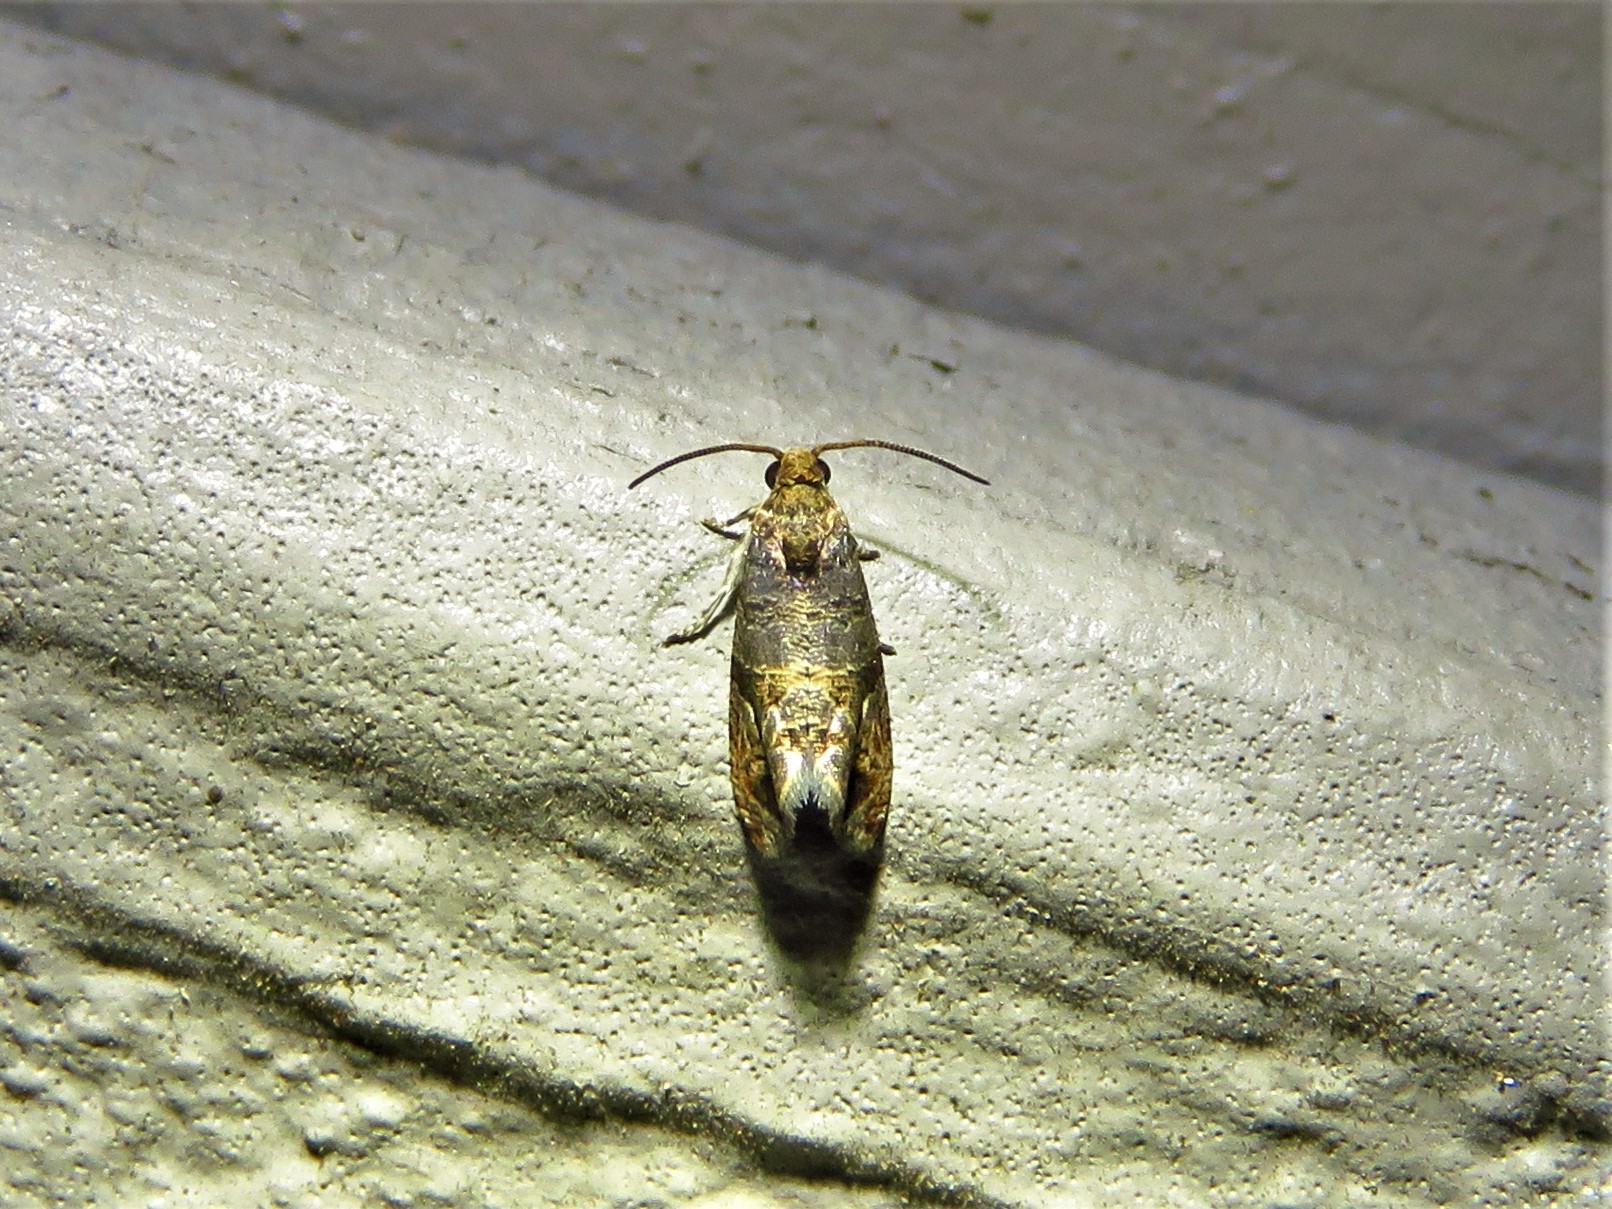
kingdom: Animalia
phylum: Arthropoda
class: Insecta
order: Lepidoptera
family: Tortricidae
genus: Paralobesia
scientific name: Paralobesia viteana
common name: Grape berry moth
